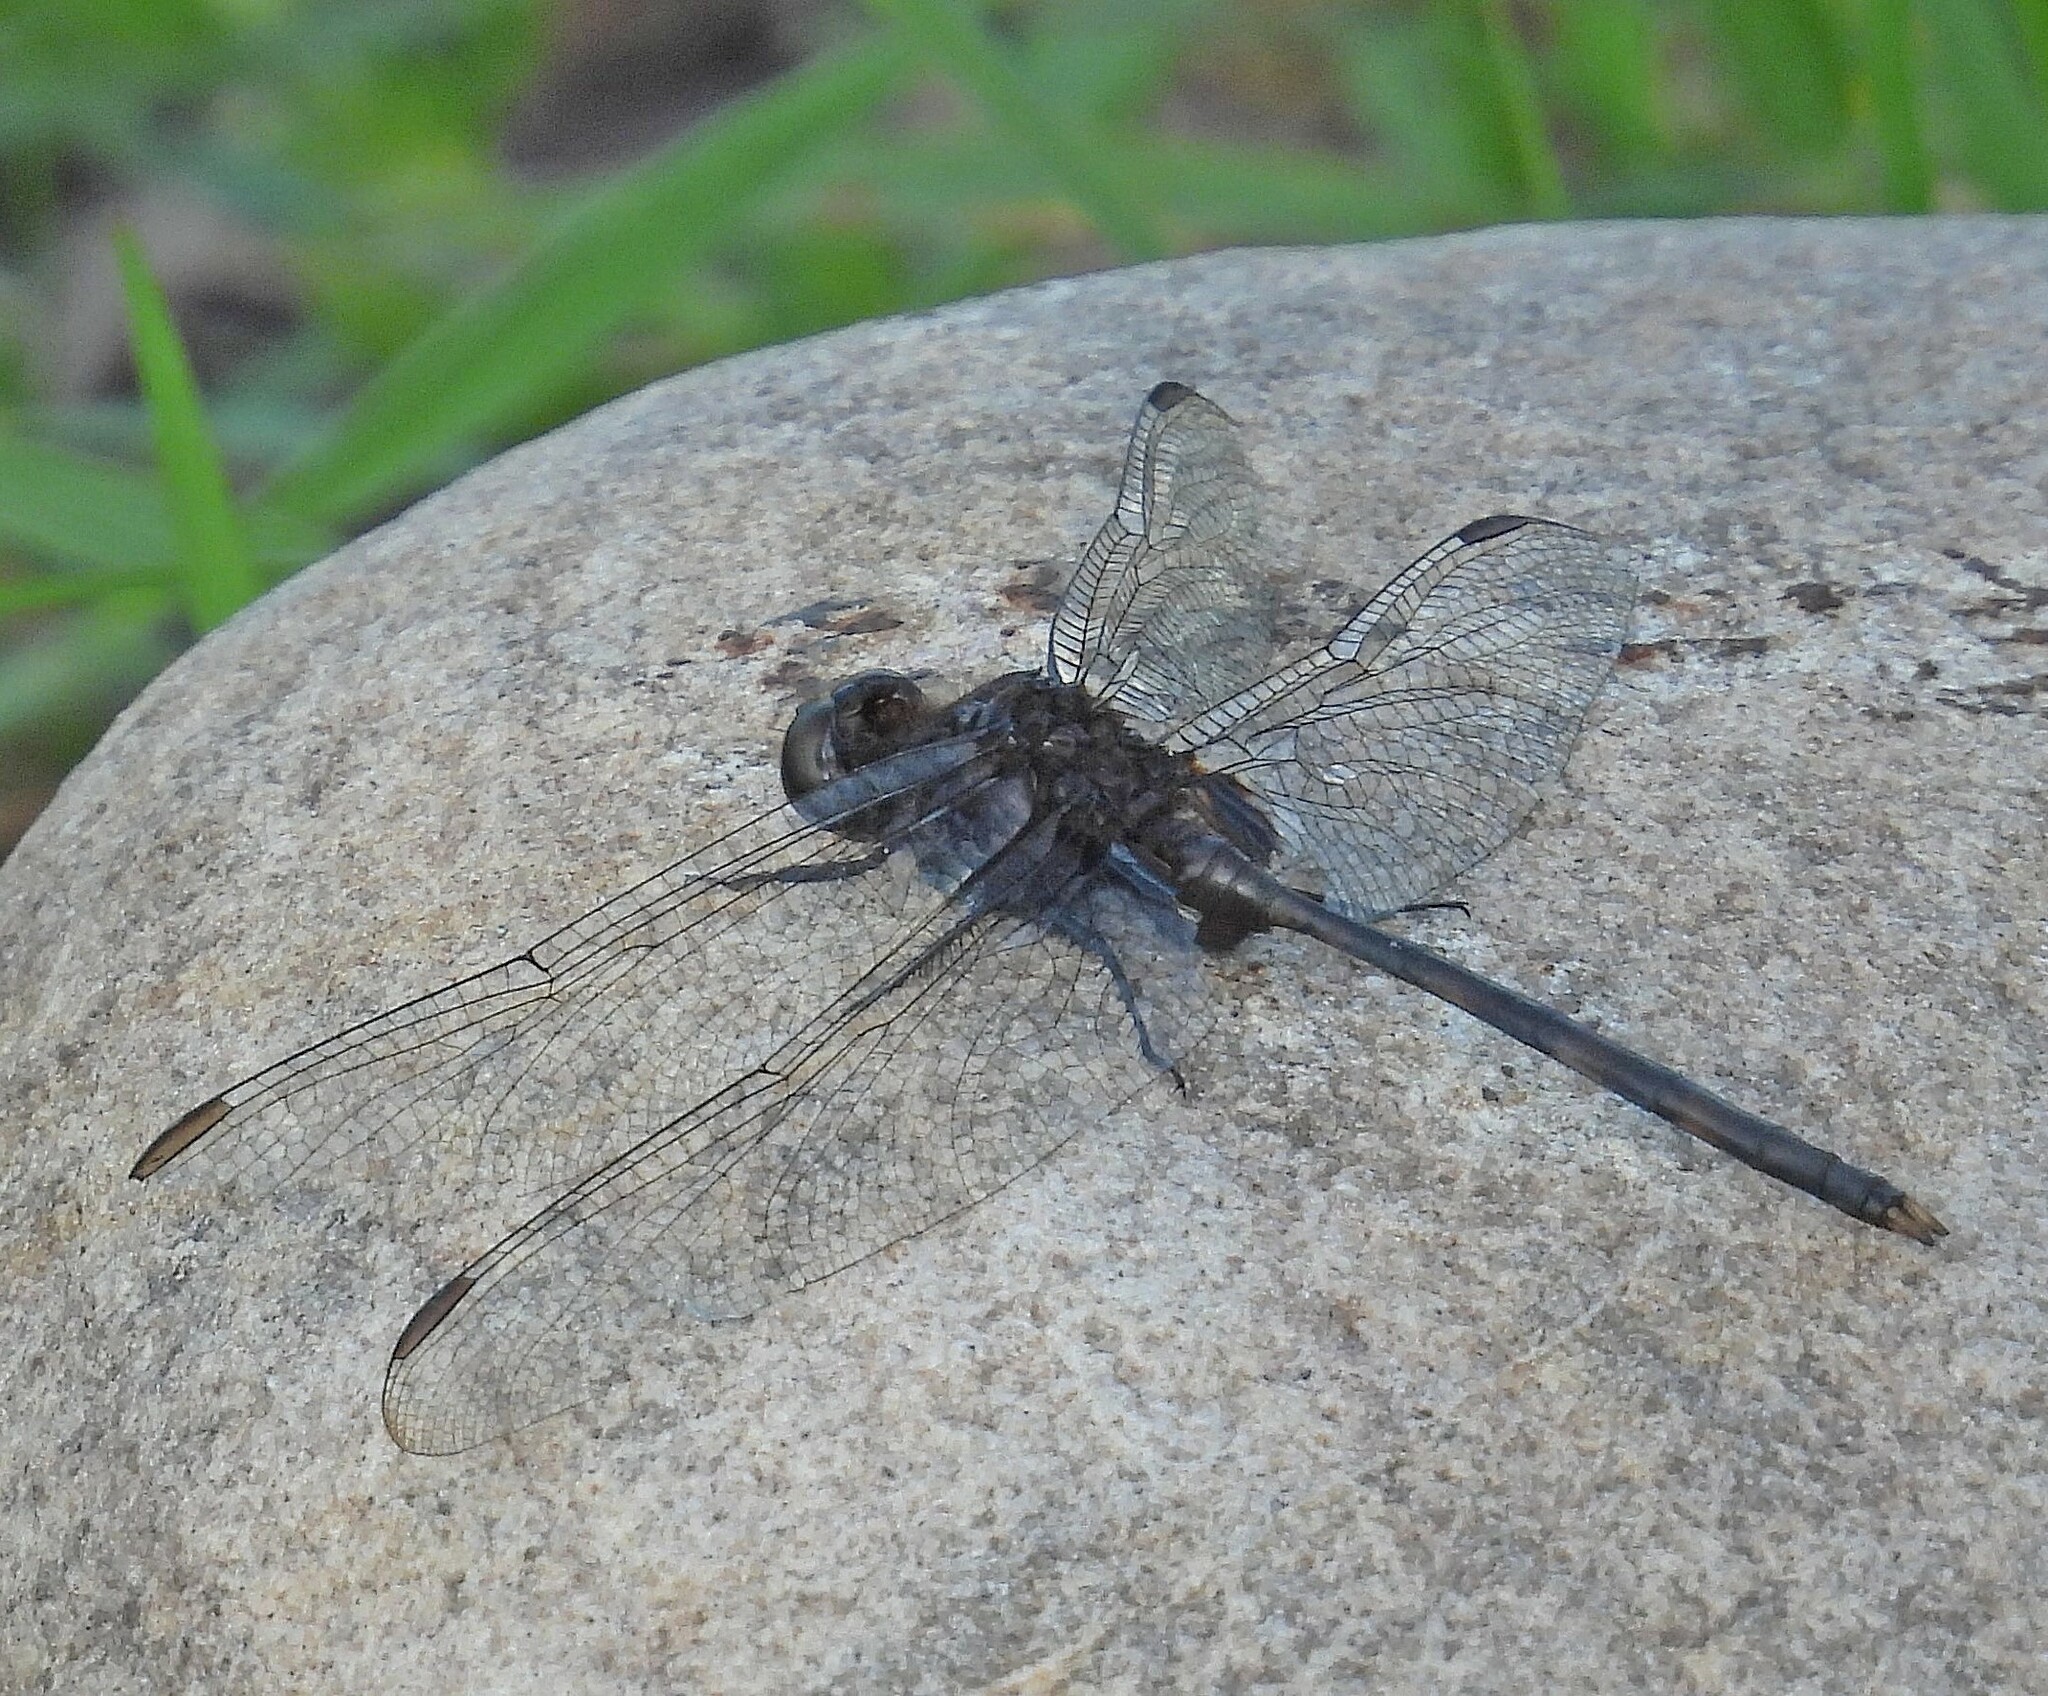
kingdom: Animalia
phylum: Arthropoda
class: Insecta
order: Odonata
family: Libellulidae
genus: Erythemis
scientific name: Erythemis plebeja
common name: Pin-tailed pondhawk
